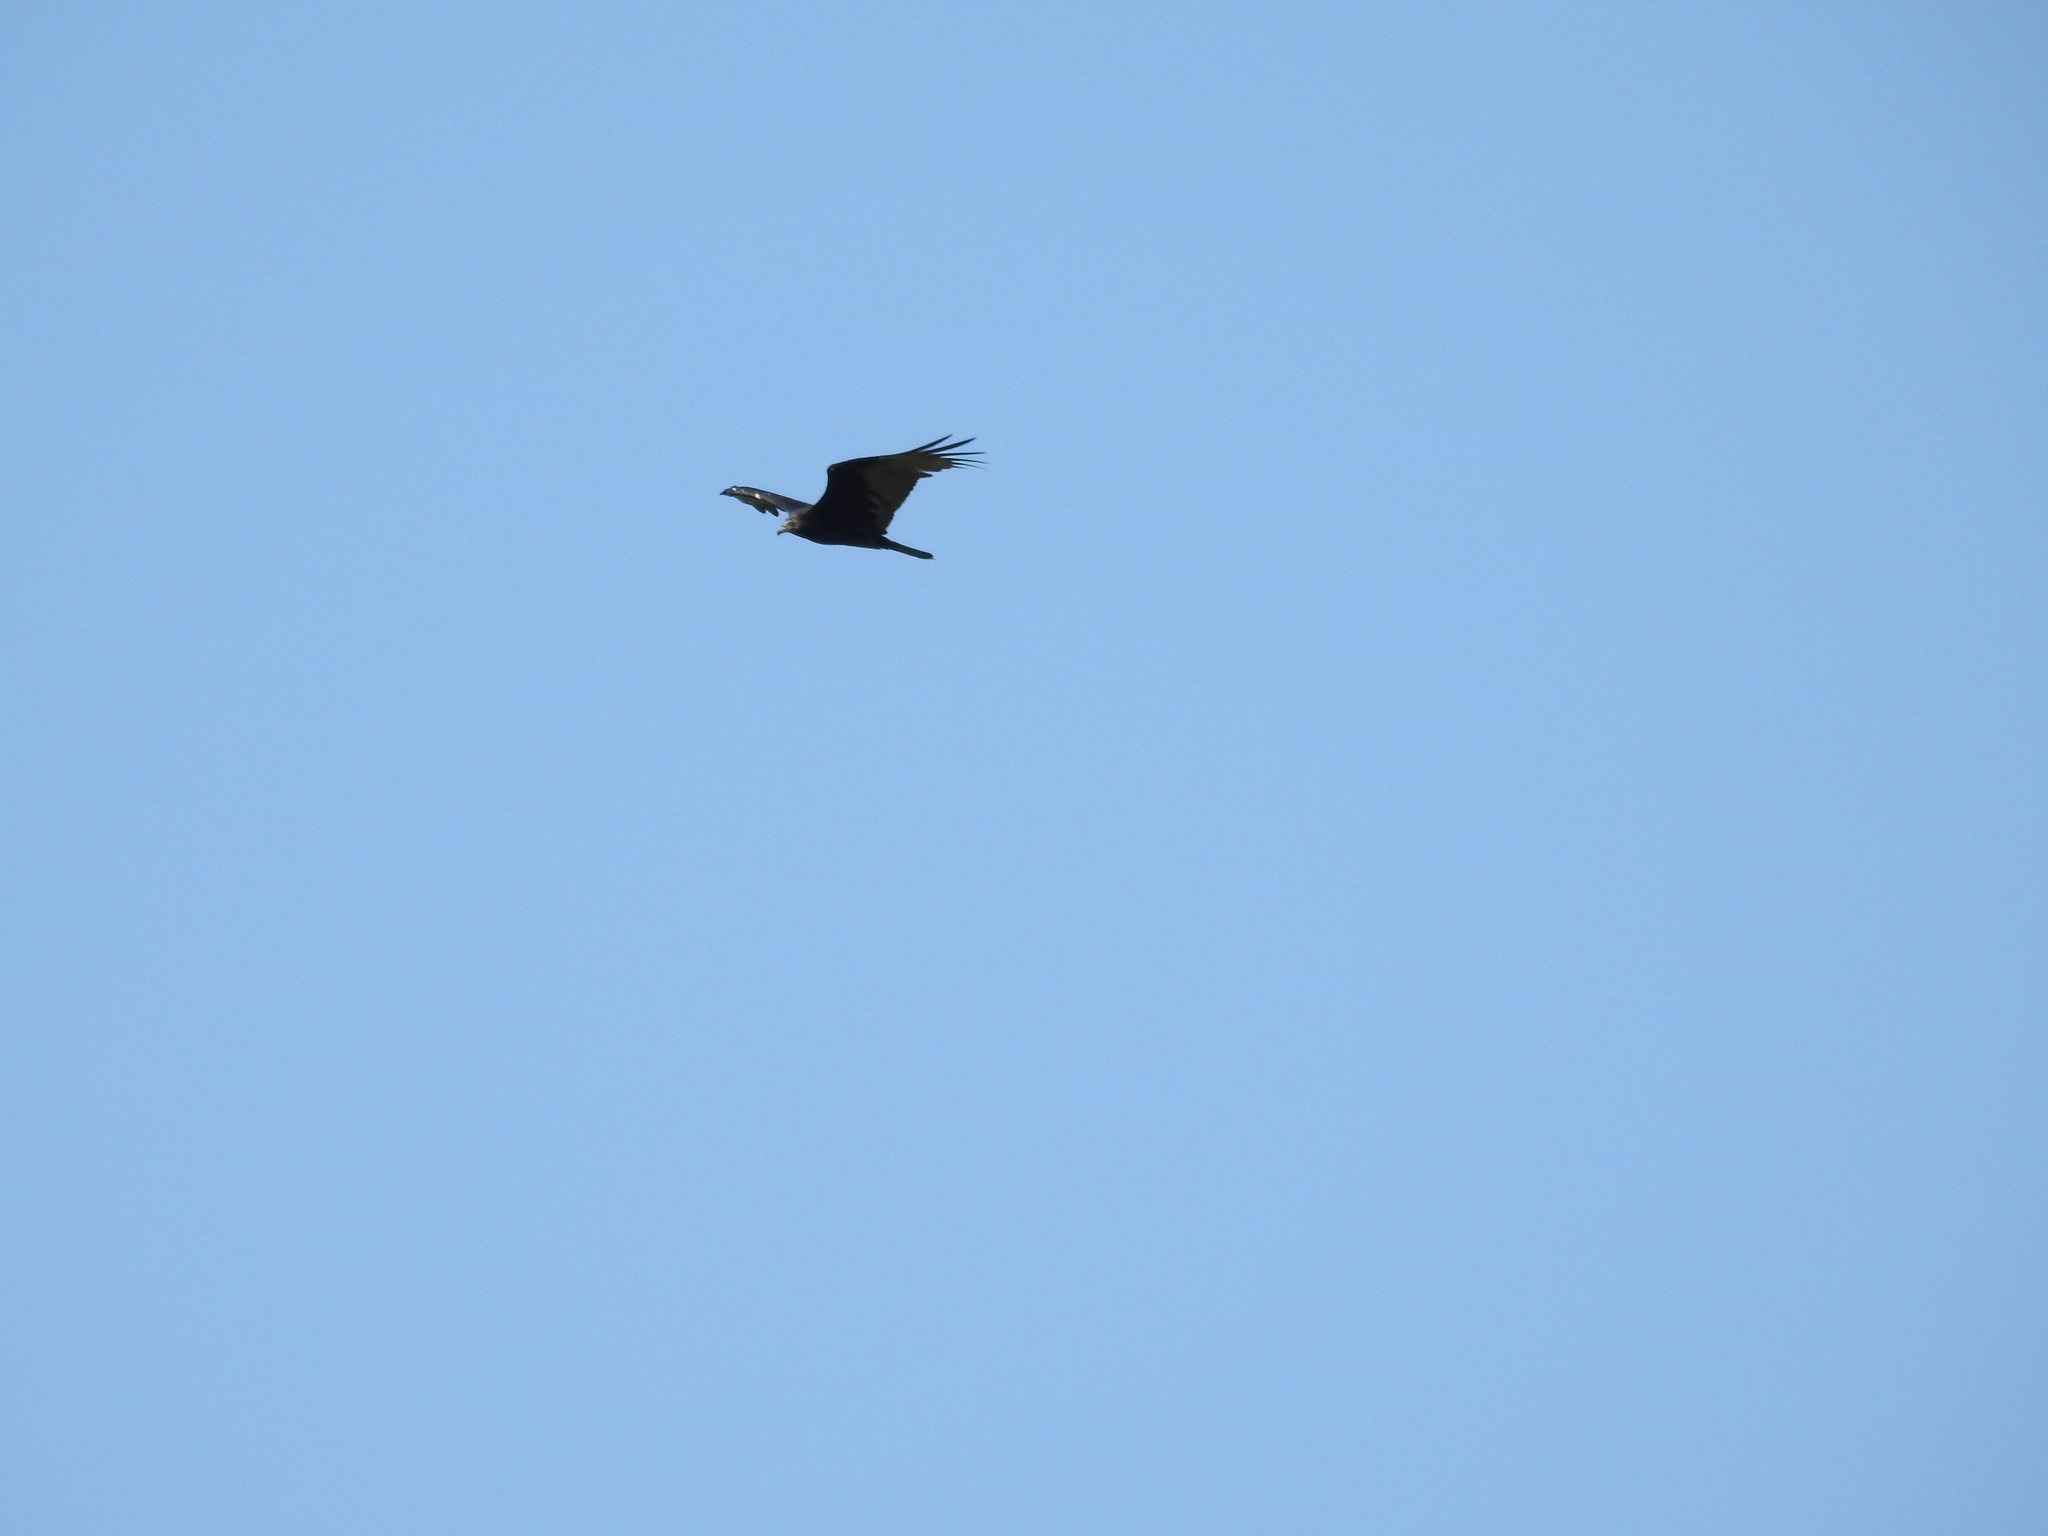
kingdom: Animalia
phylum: Chordata
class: Aves
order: Accipitriformes
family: Cathartidae
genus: Cathartes
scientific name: Cathartes aura
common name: Turkey vulture
